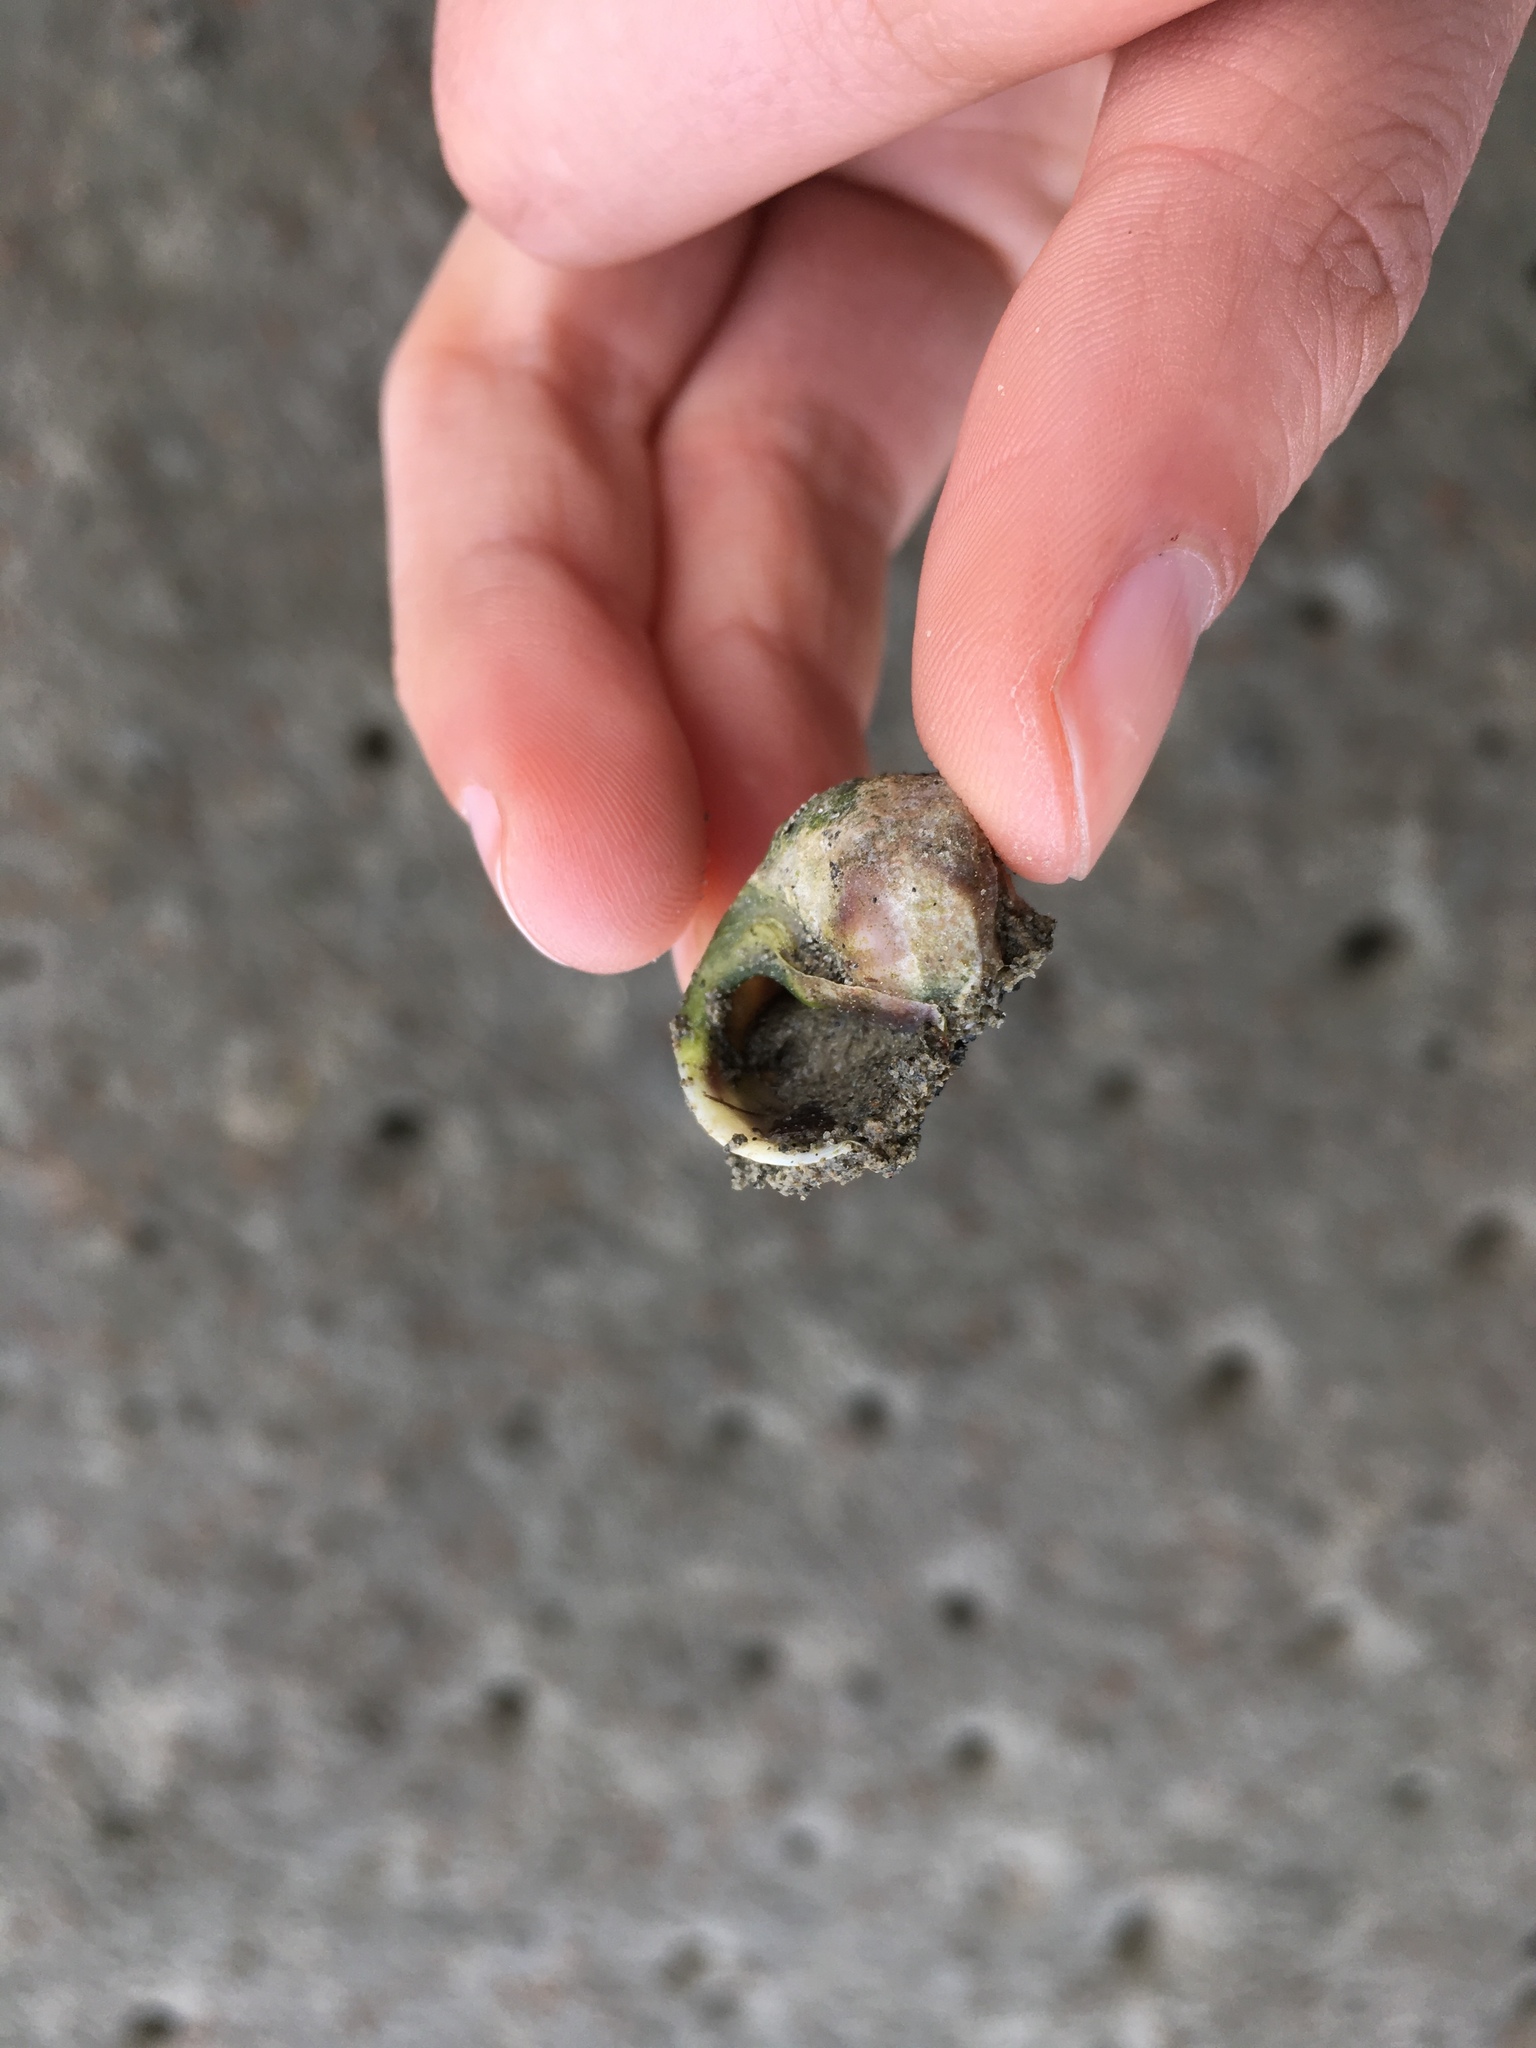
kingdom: Animalia
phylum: Mollusca
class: Gastropoda
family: Amphibolidae
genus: Amphibola
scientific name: Amphibola crenata
